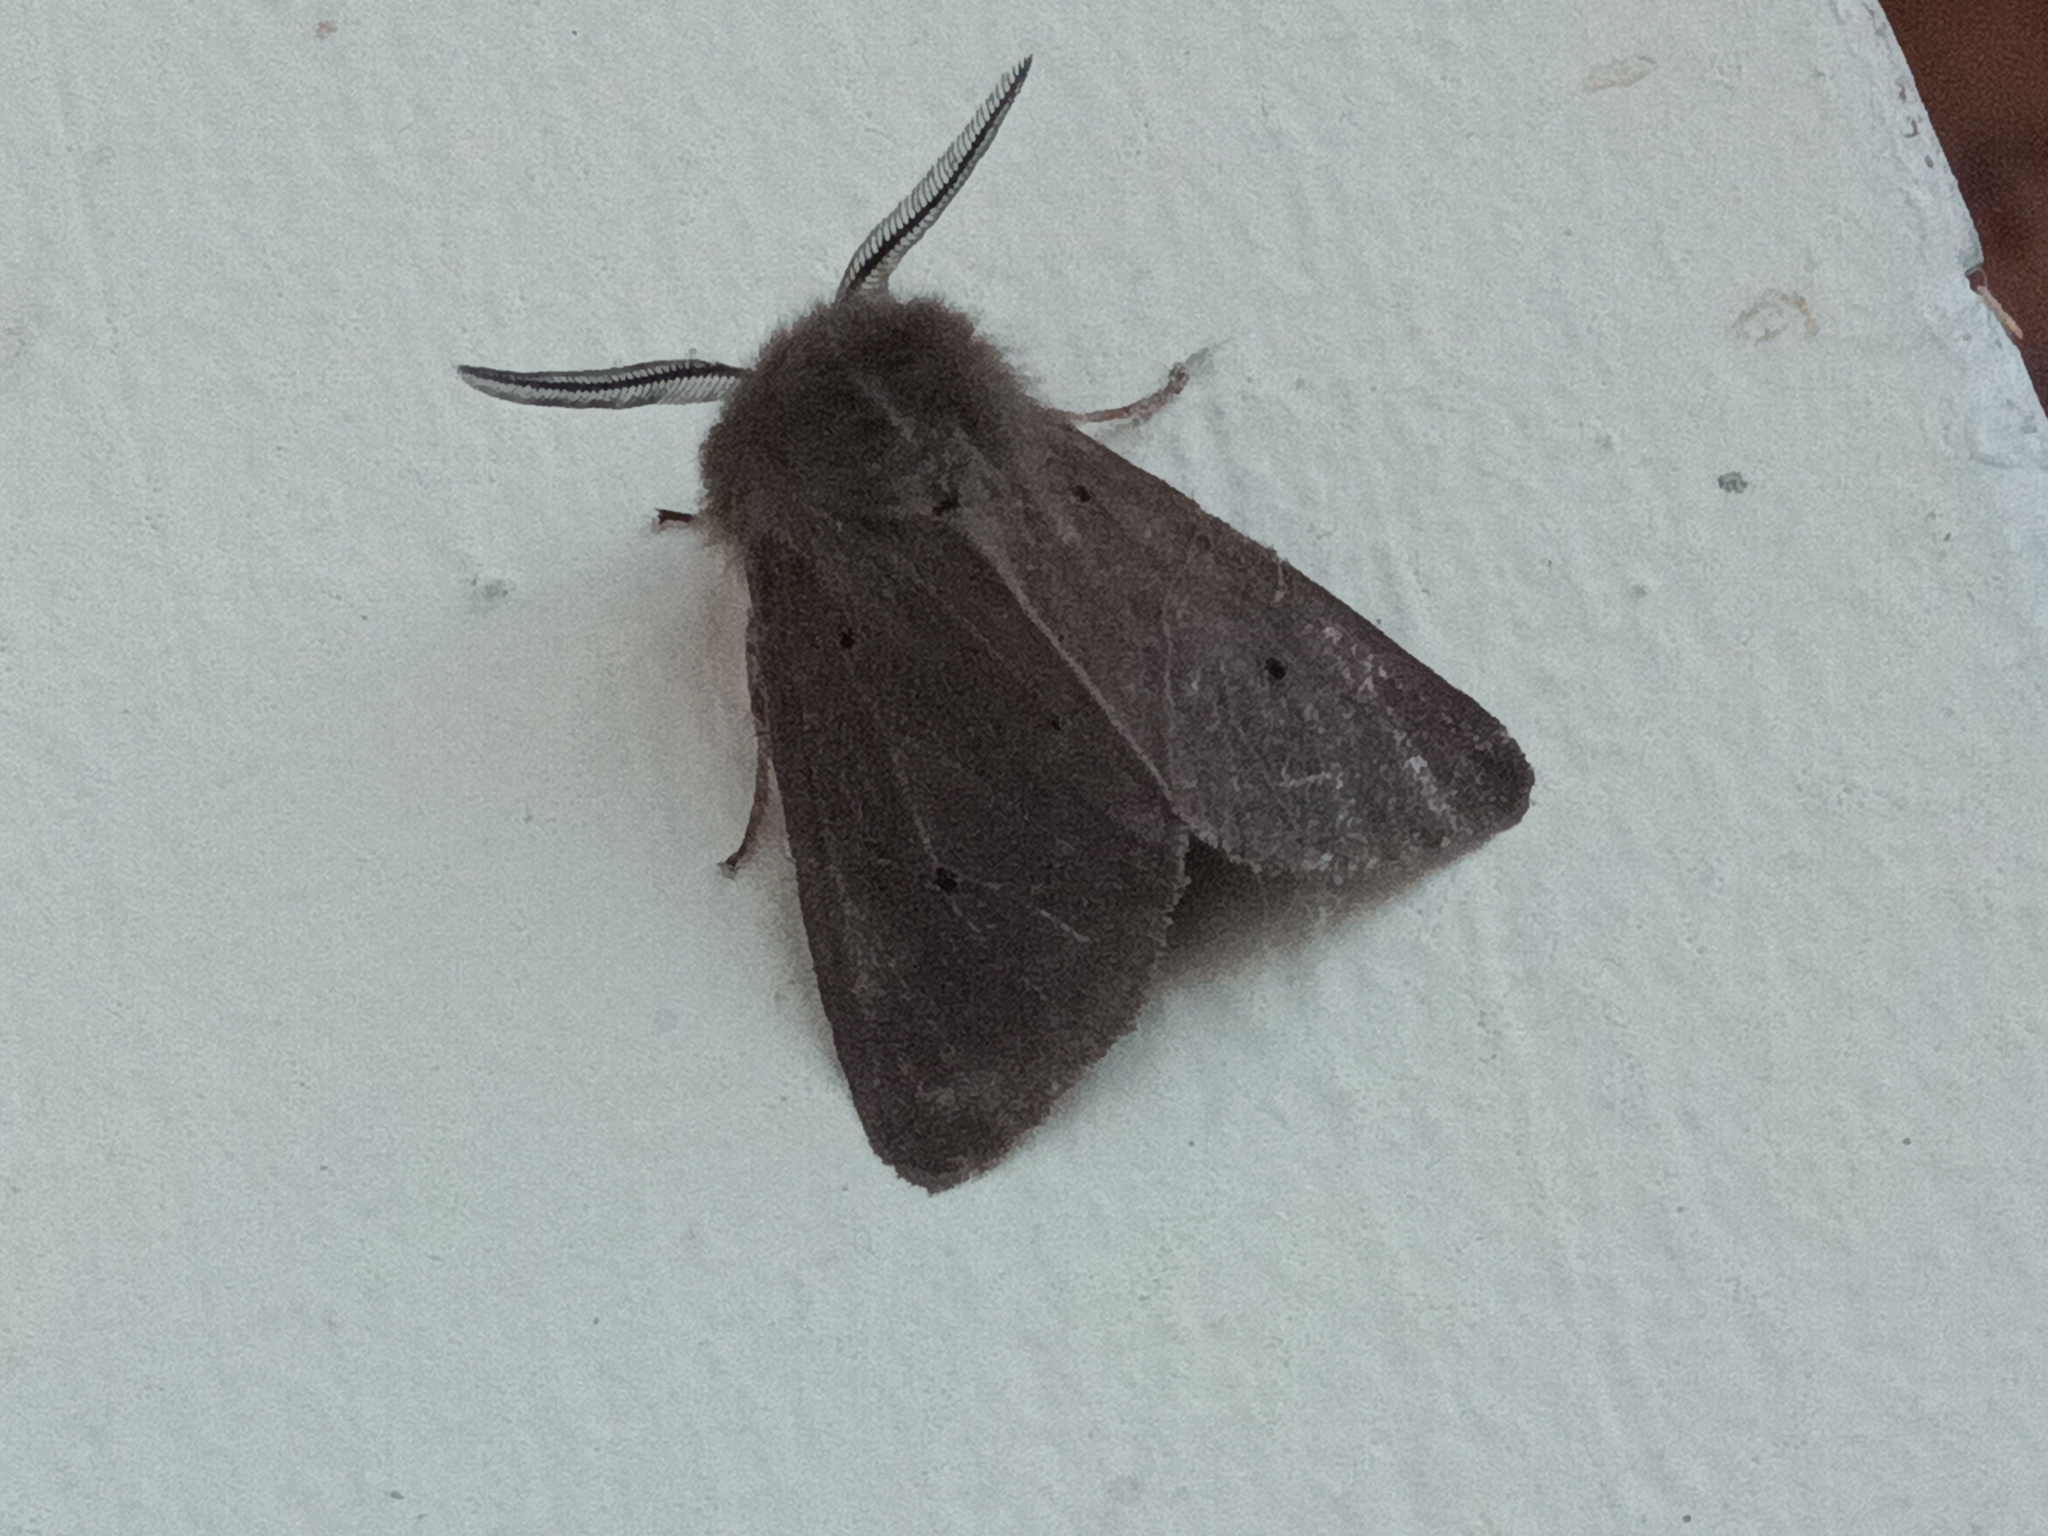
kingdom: Animalia
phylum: Arthropoda
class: Insecta
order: Lepidoptera
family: Erebidae
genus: Diaphora
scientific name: Diaphora mendica
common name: Muslin moth
